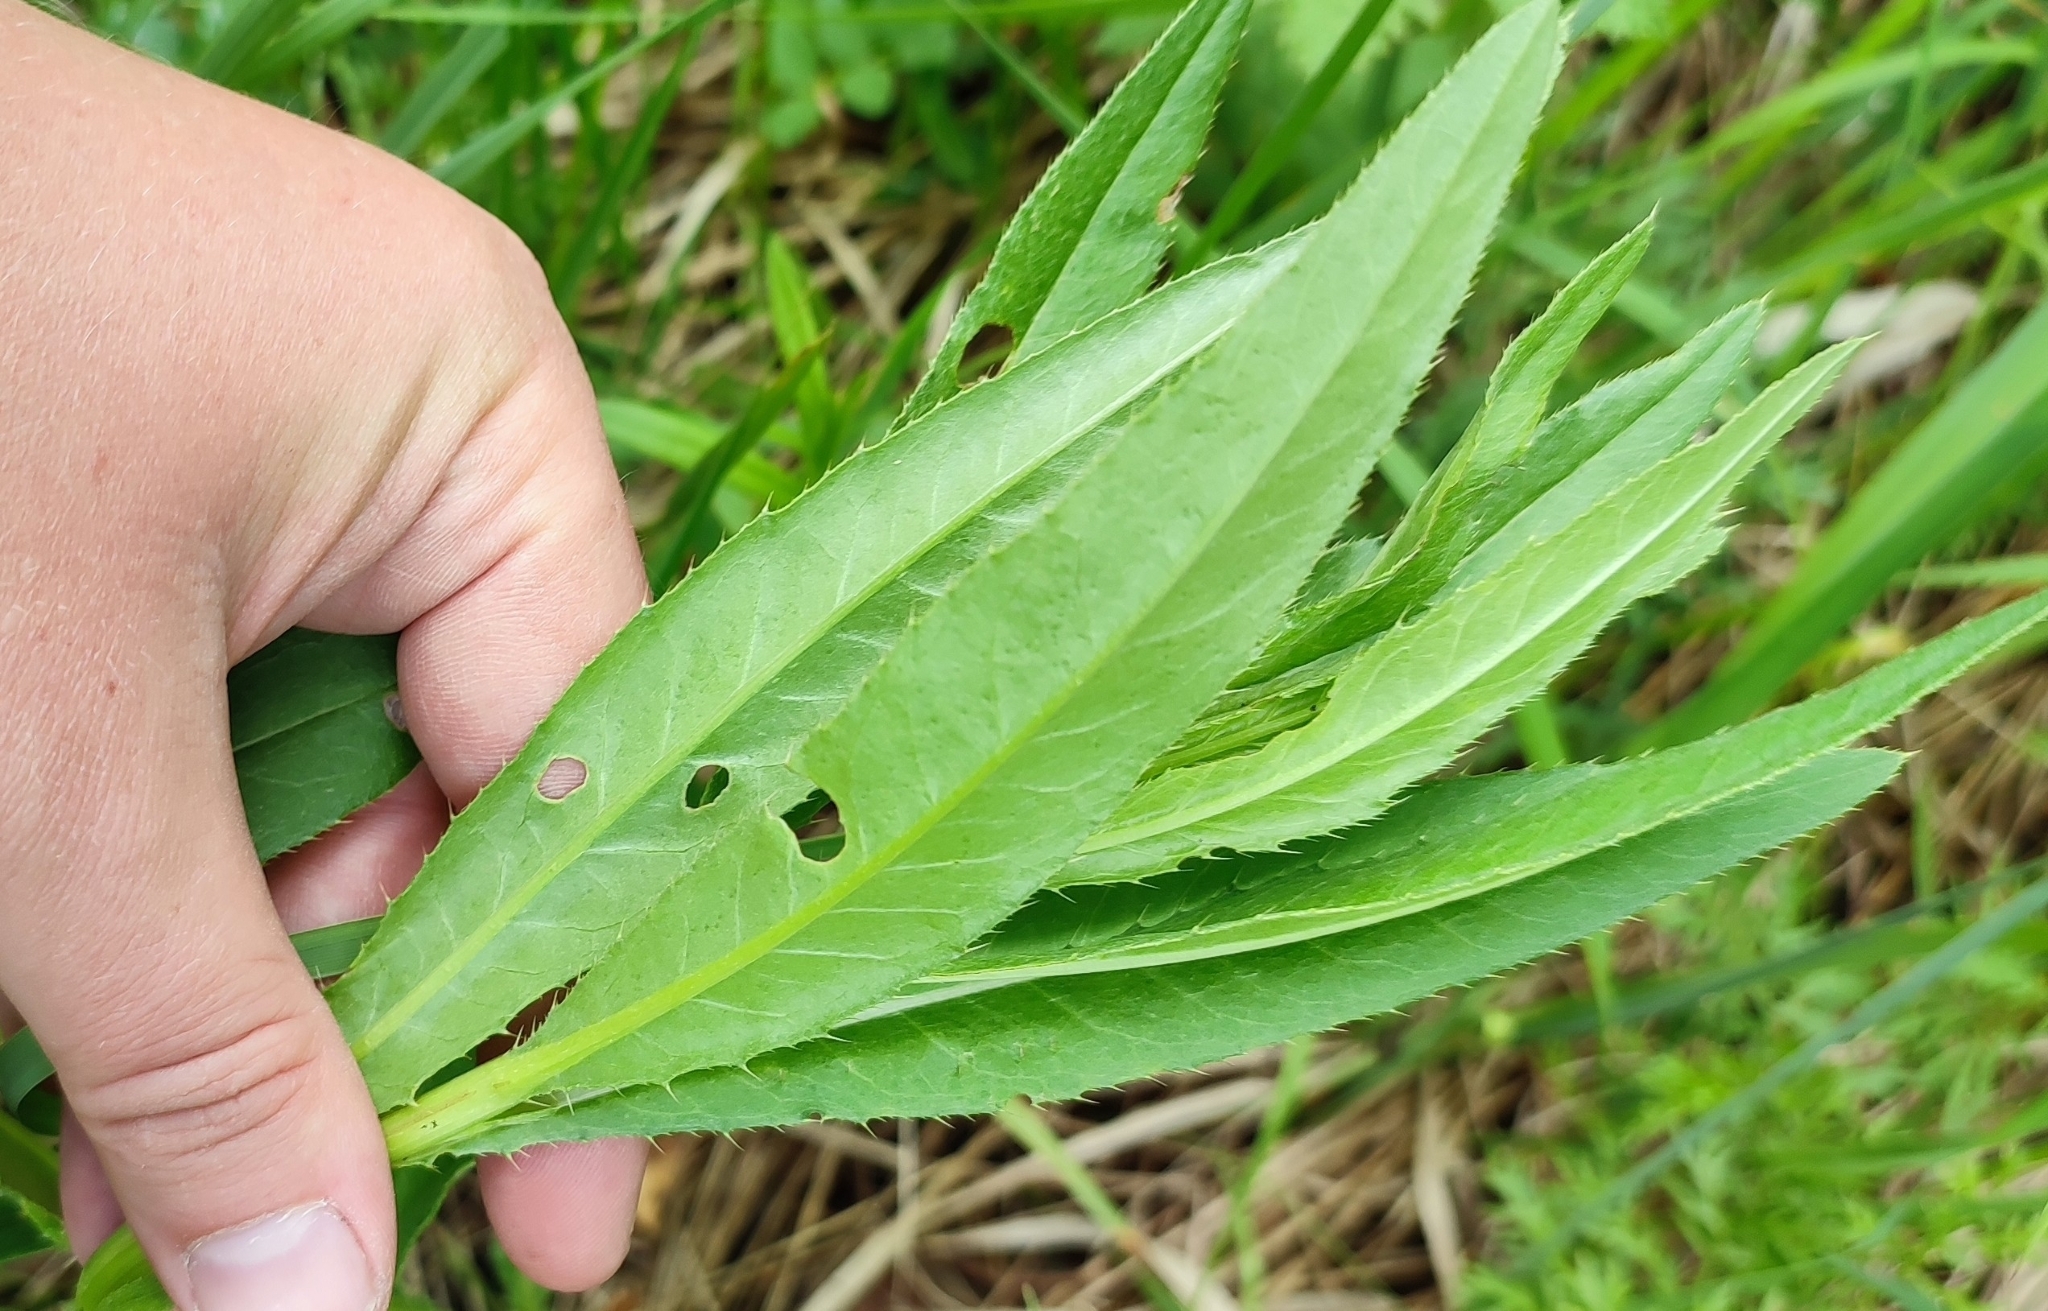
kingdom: Plantae
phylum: Tracheophyta
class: Magnoliopsida
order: Asterales
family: Asteraceae
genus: Cirsium
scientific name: Cirsium arvense
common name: Creeping thistle
